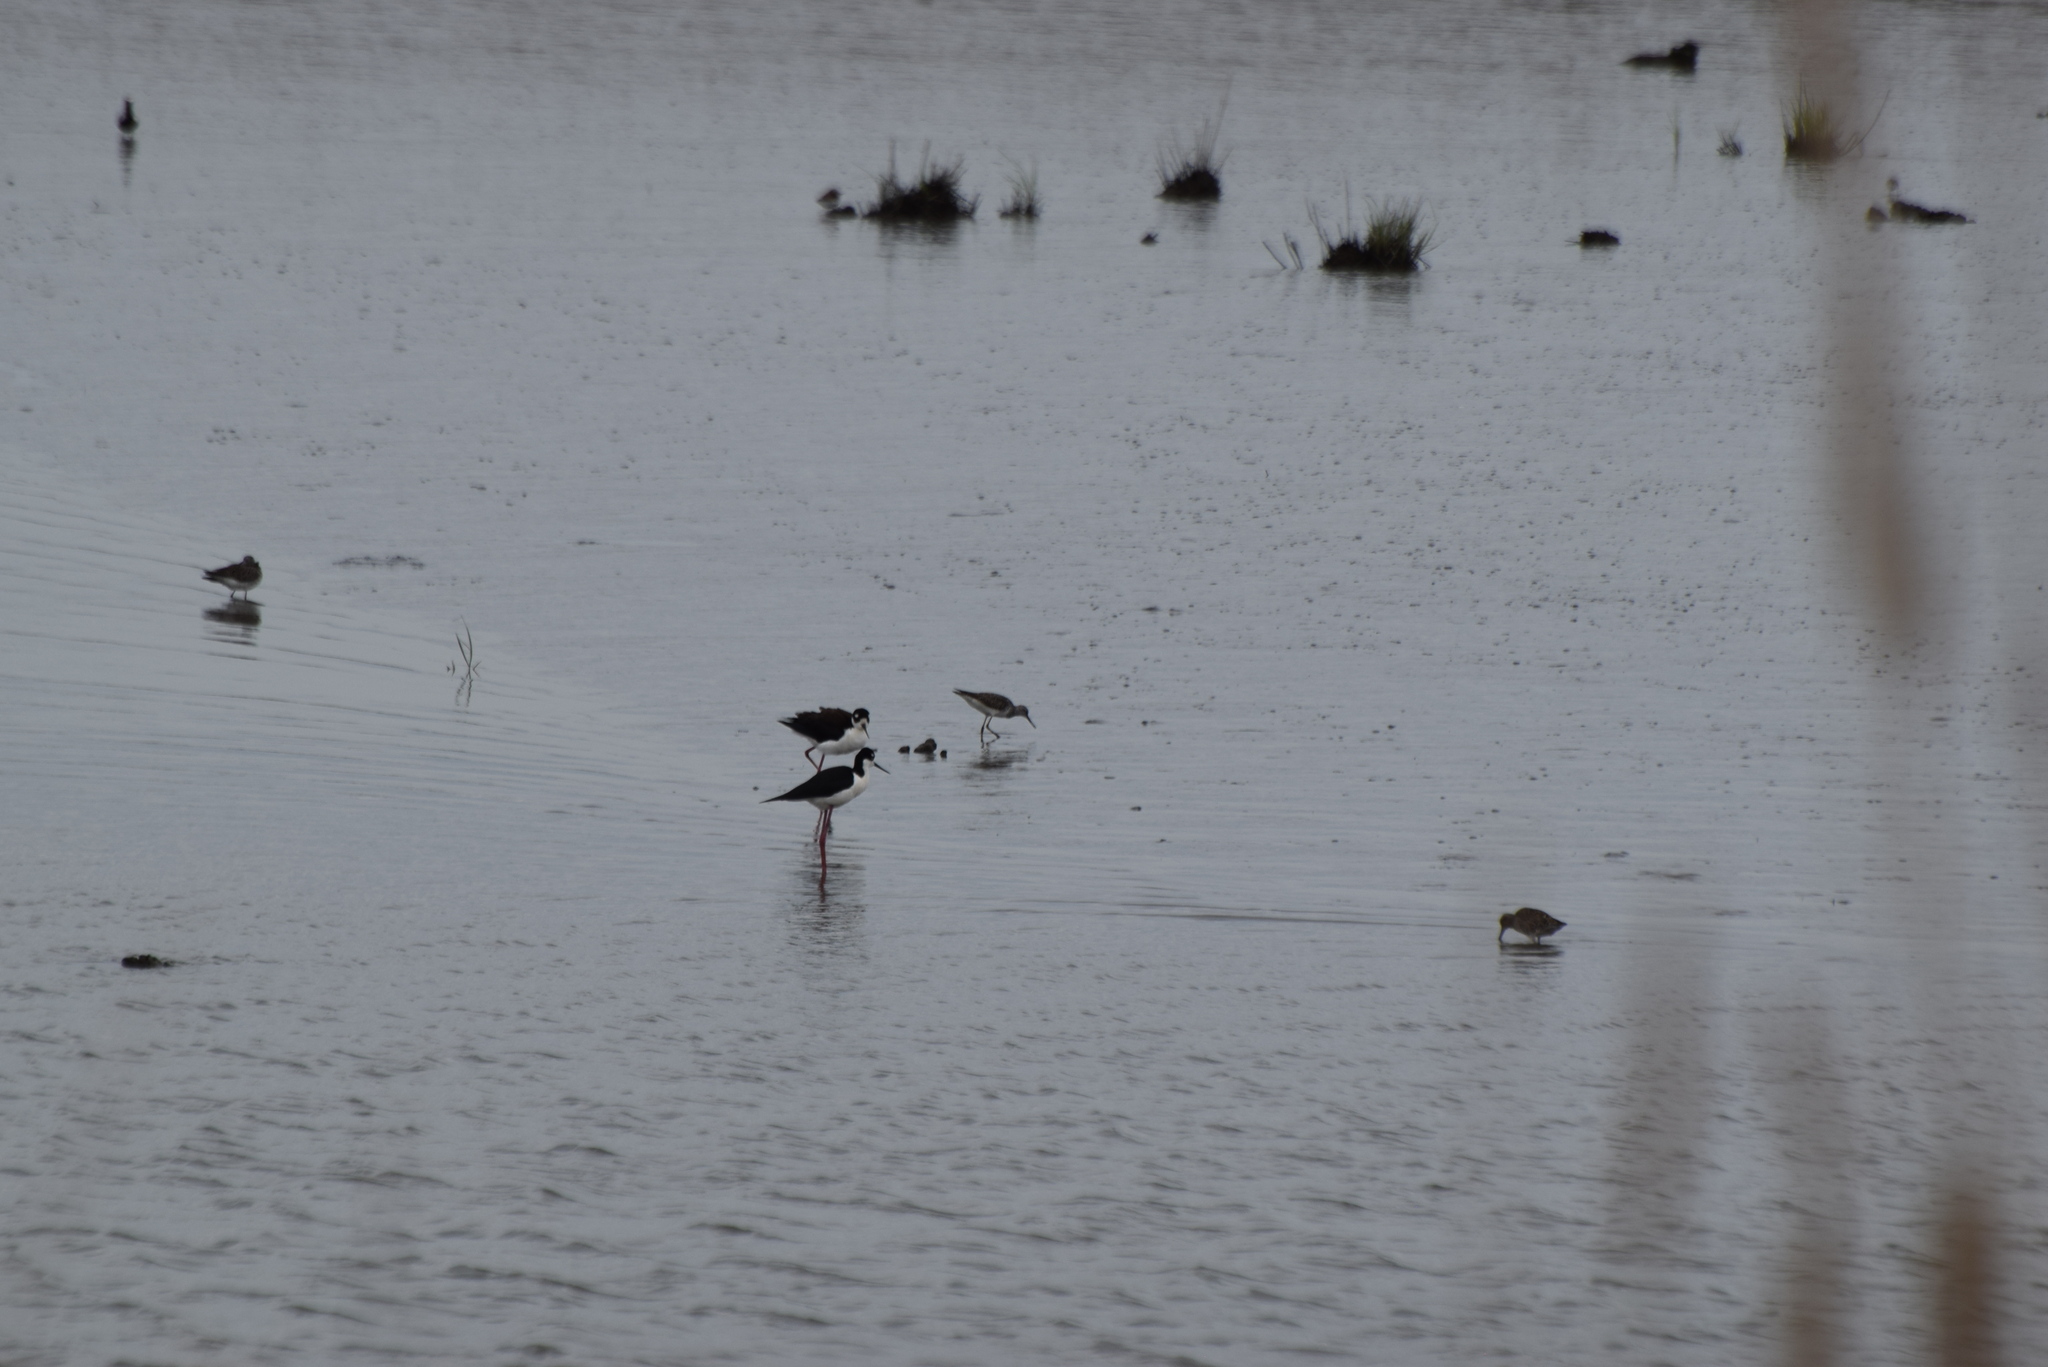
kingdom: Animalia
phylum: Chordata
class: Aves
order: Charadriiformes
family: Recurvirostridae
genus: Himantopus
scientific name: Himantopus mexicanus
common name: Black-necked stilt
